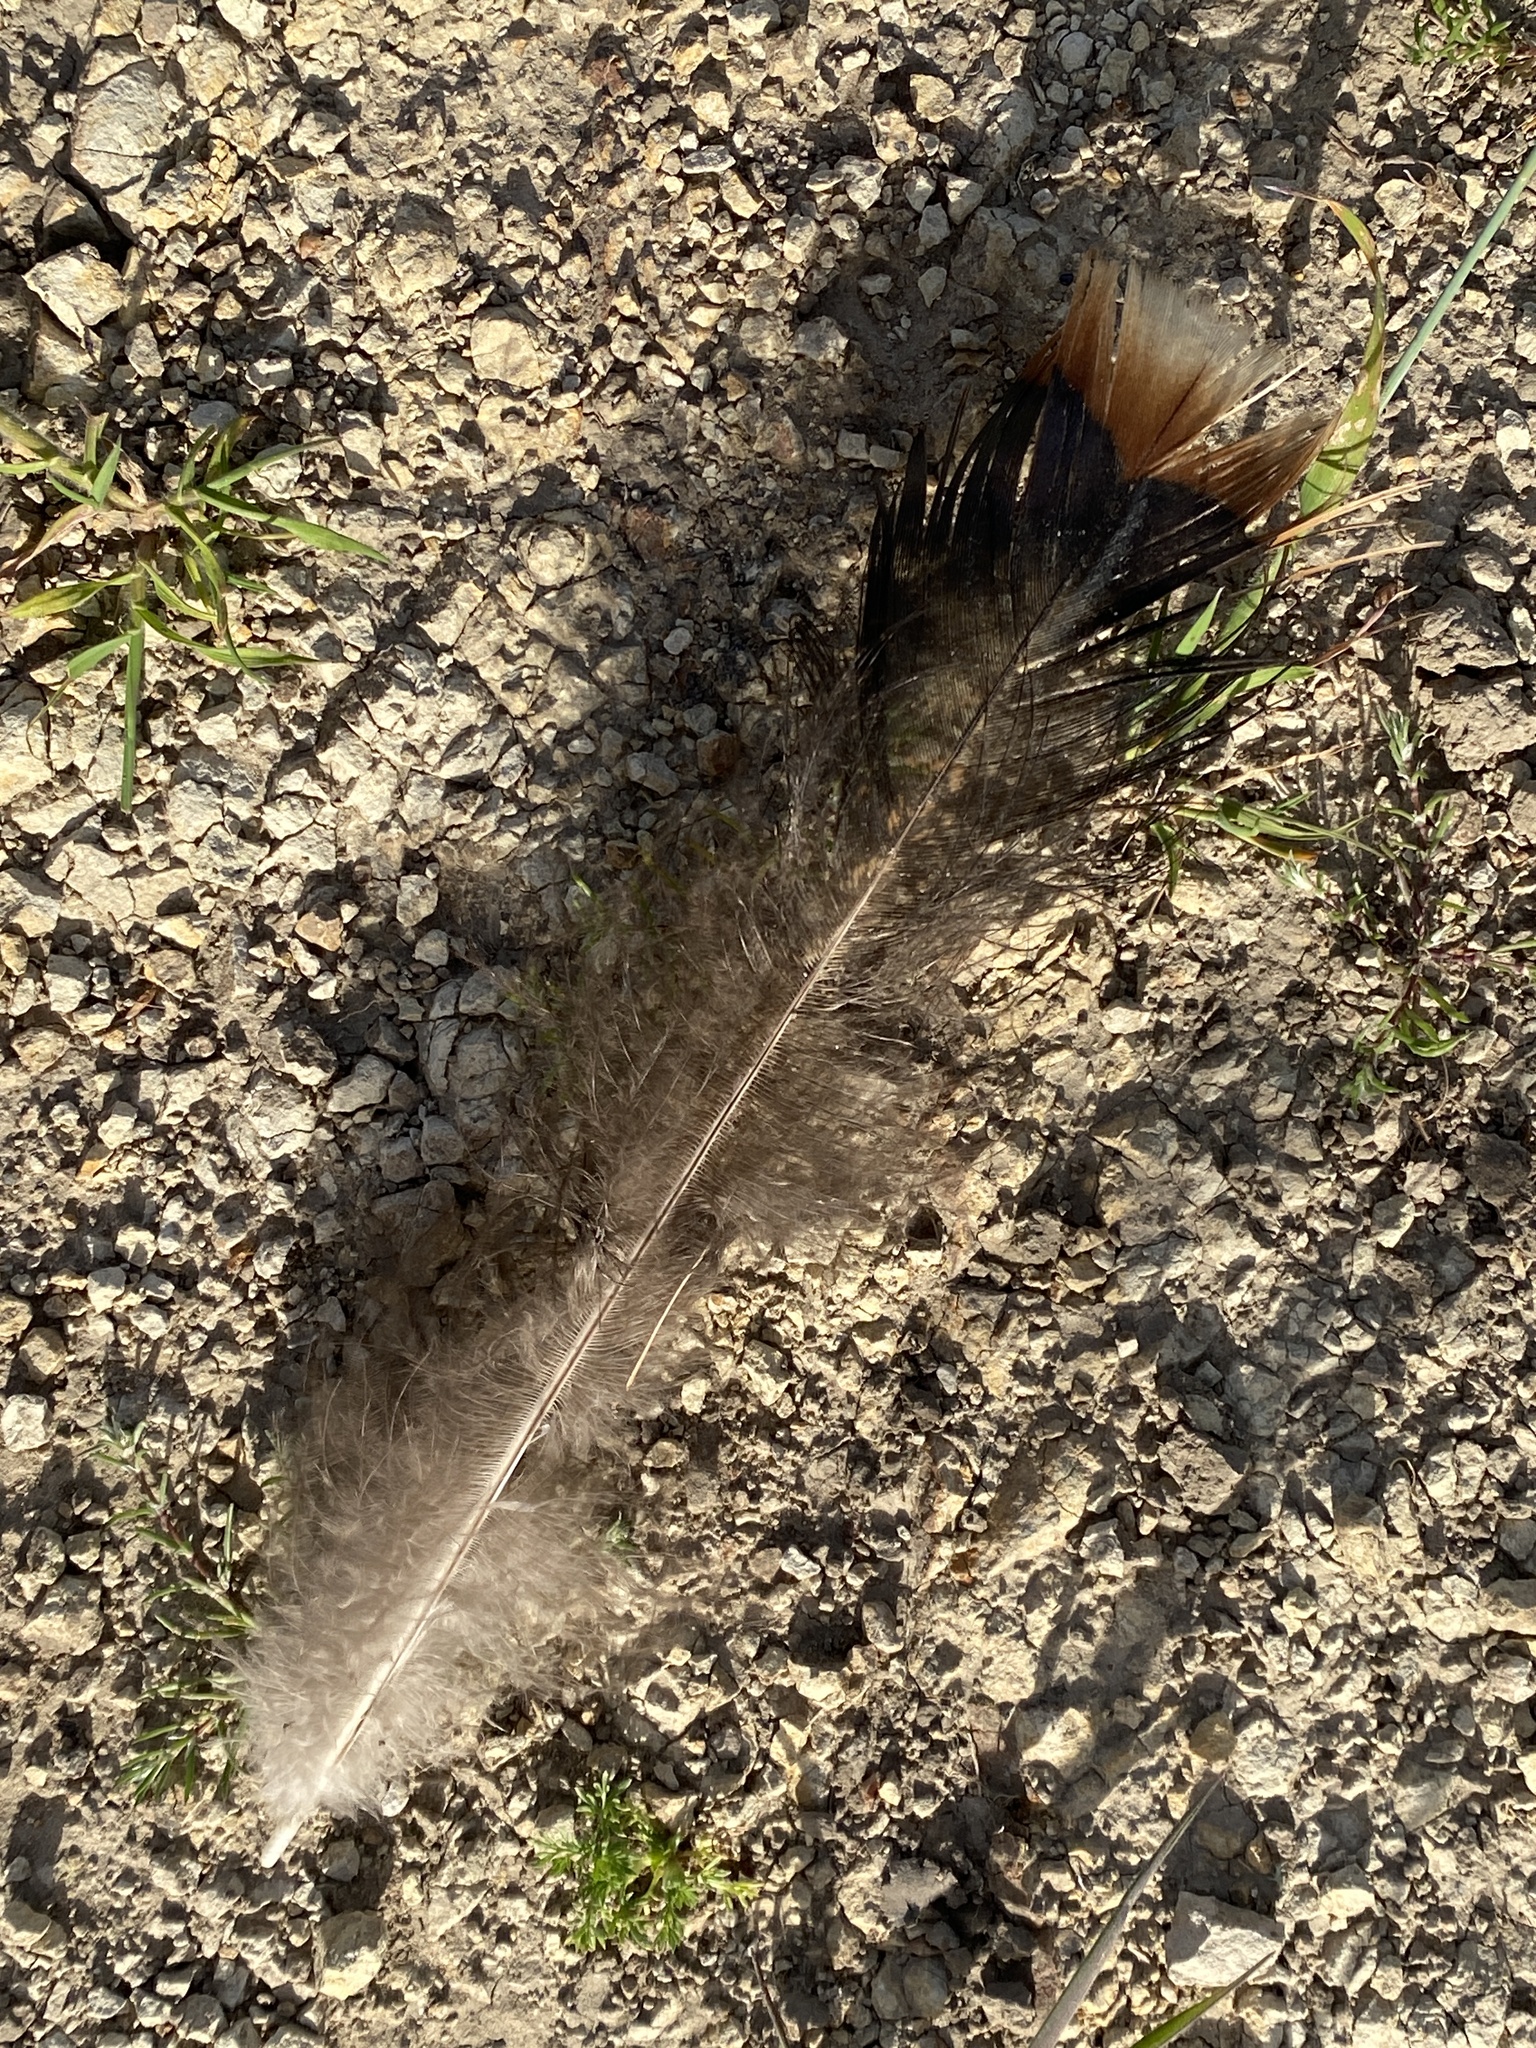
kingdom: Animalia
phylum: Chordata
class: Aves
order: Galliformes
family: Phasianidae
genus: Meleagris
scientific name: Meleagris gallopavo
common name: Wild turkey
